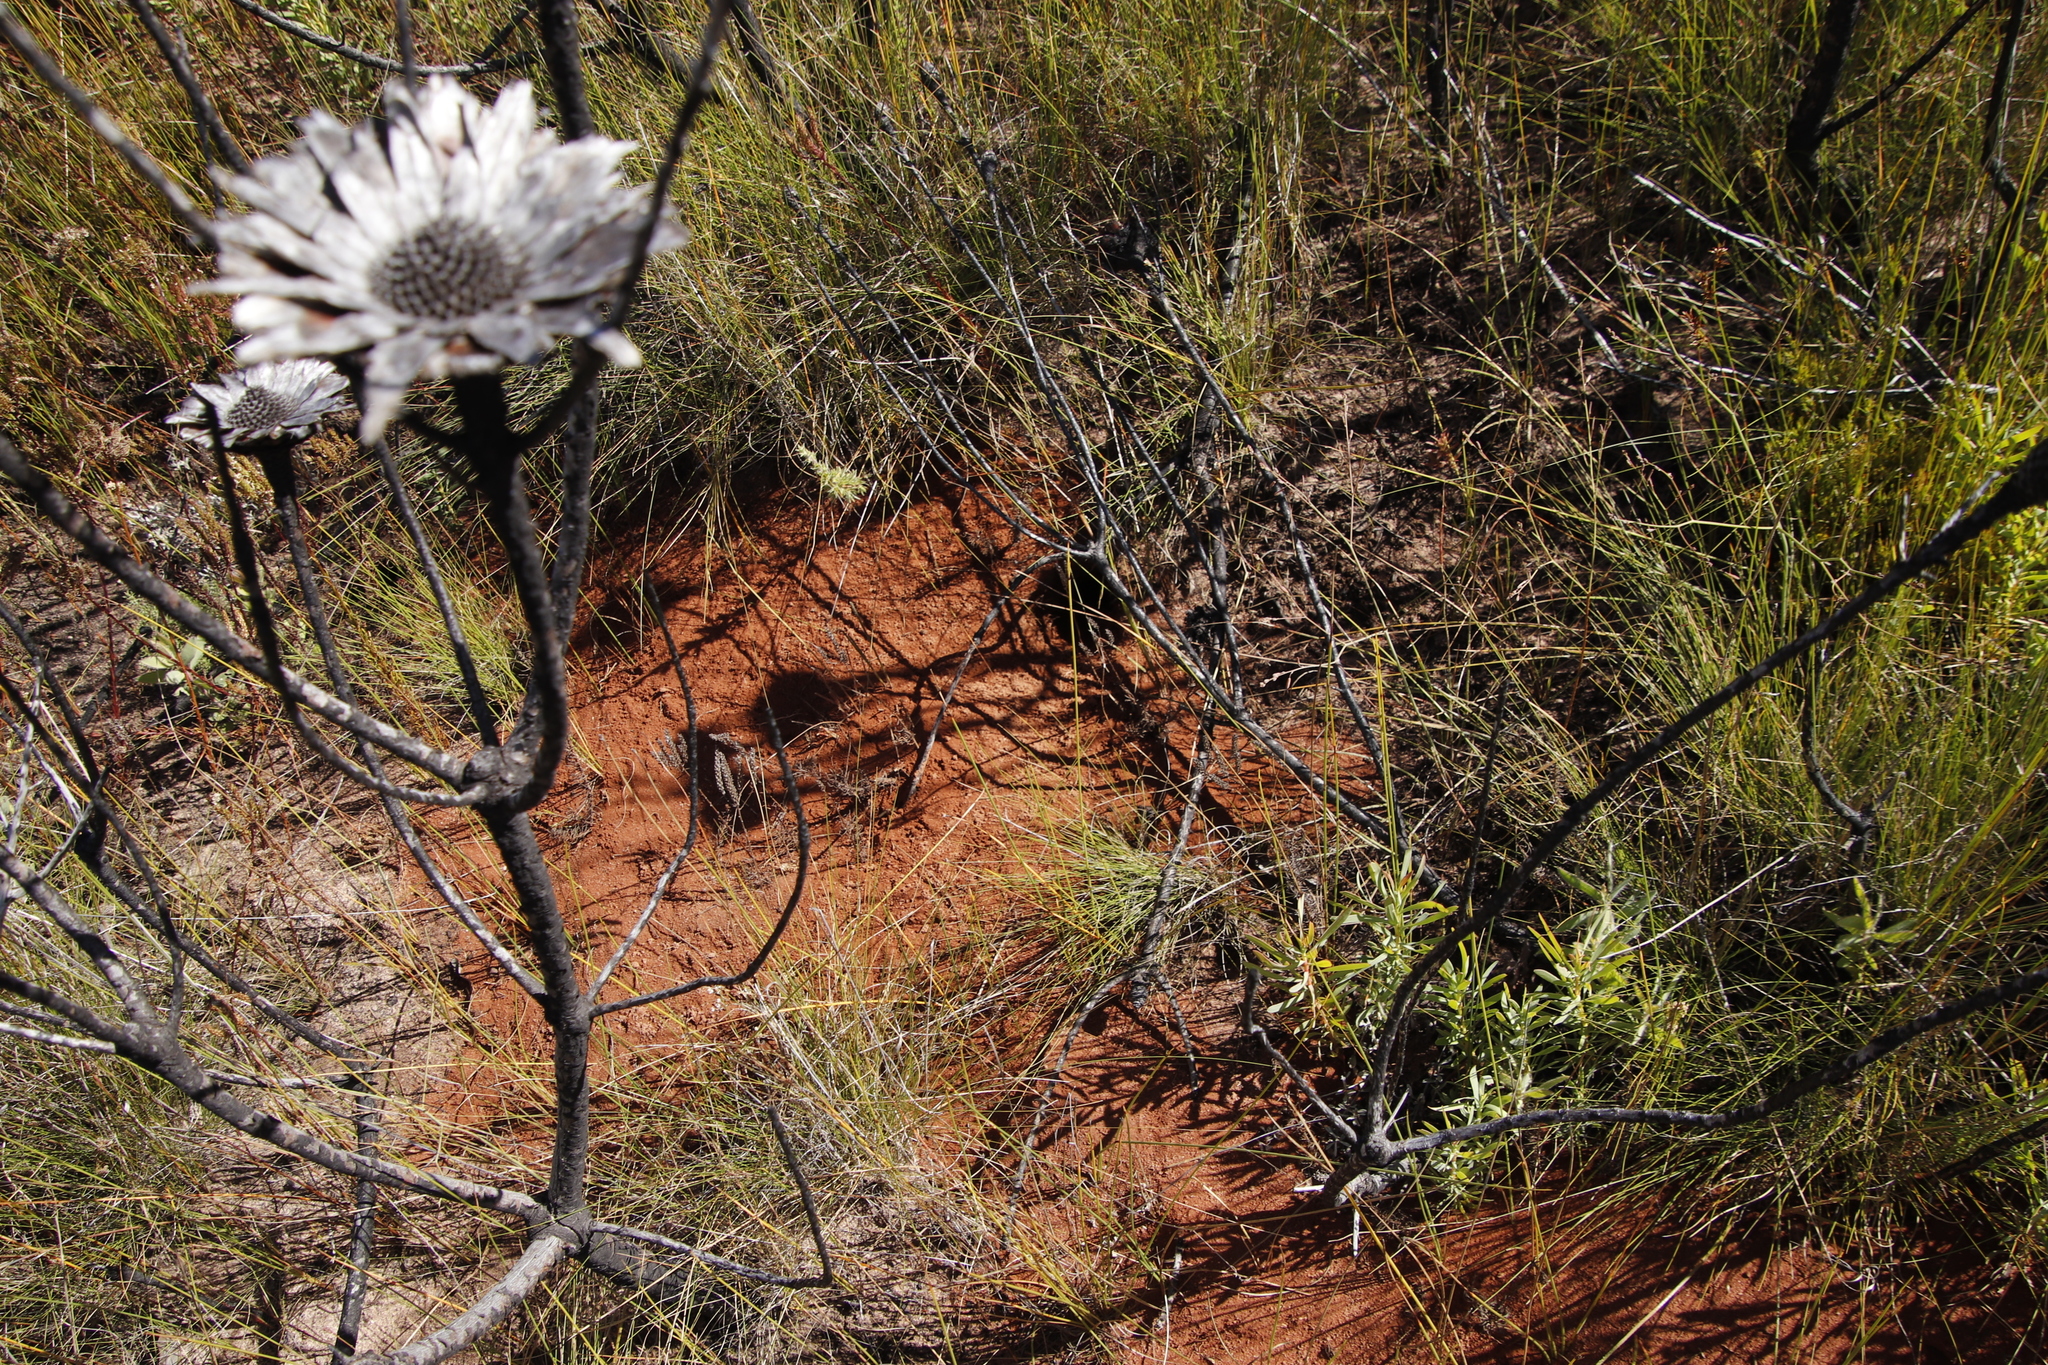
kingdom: Plantae
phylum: Tracheophyta
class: Magnoliopsida
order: Proteales
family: Proteaceae
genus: Protea
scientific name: Protea repens
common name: Sugarbush
